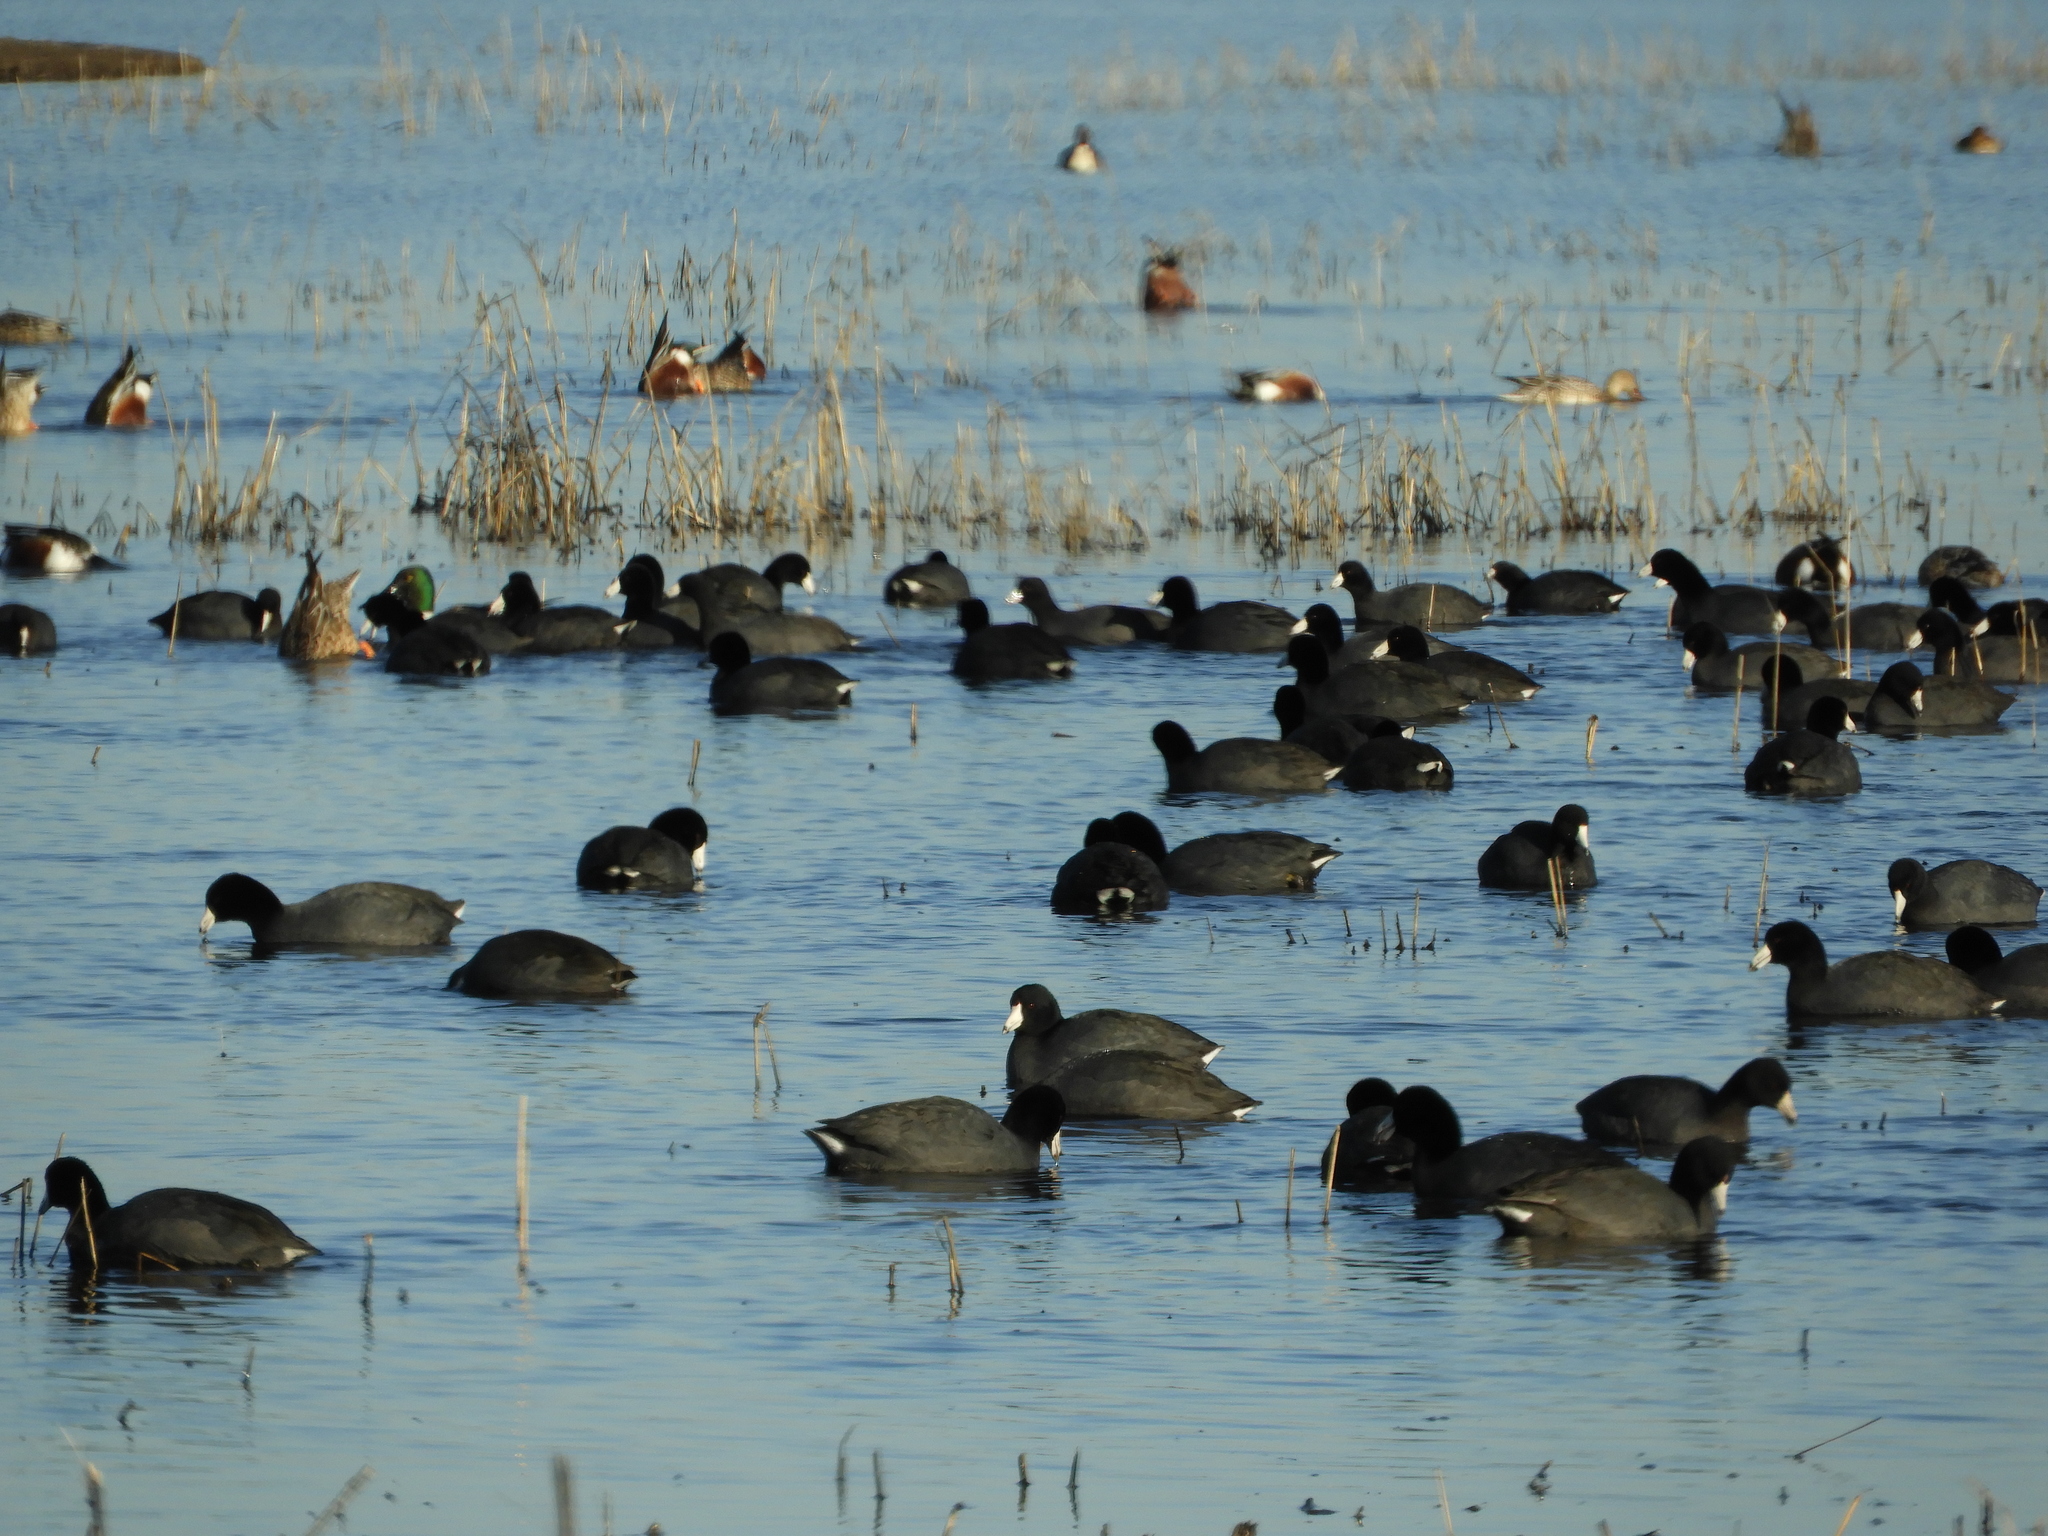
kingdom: Animalia
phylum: Chordata
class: Aves
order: Gruiformes
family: Rallidae
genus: Fulica
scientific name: Fulica americana
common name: American coot
